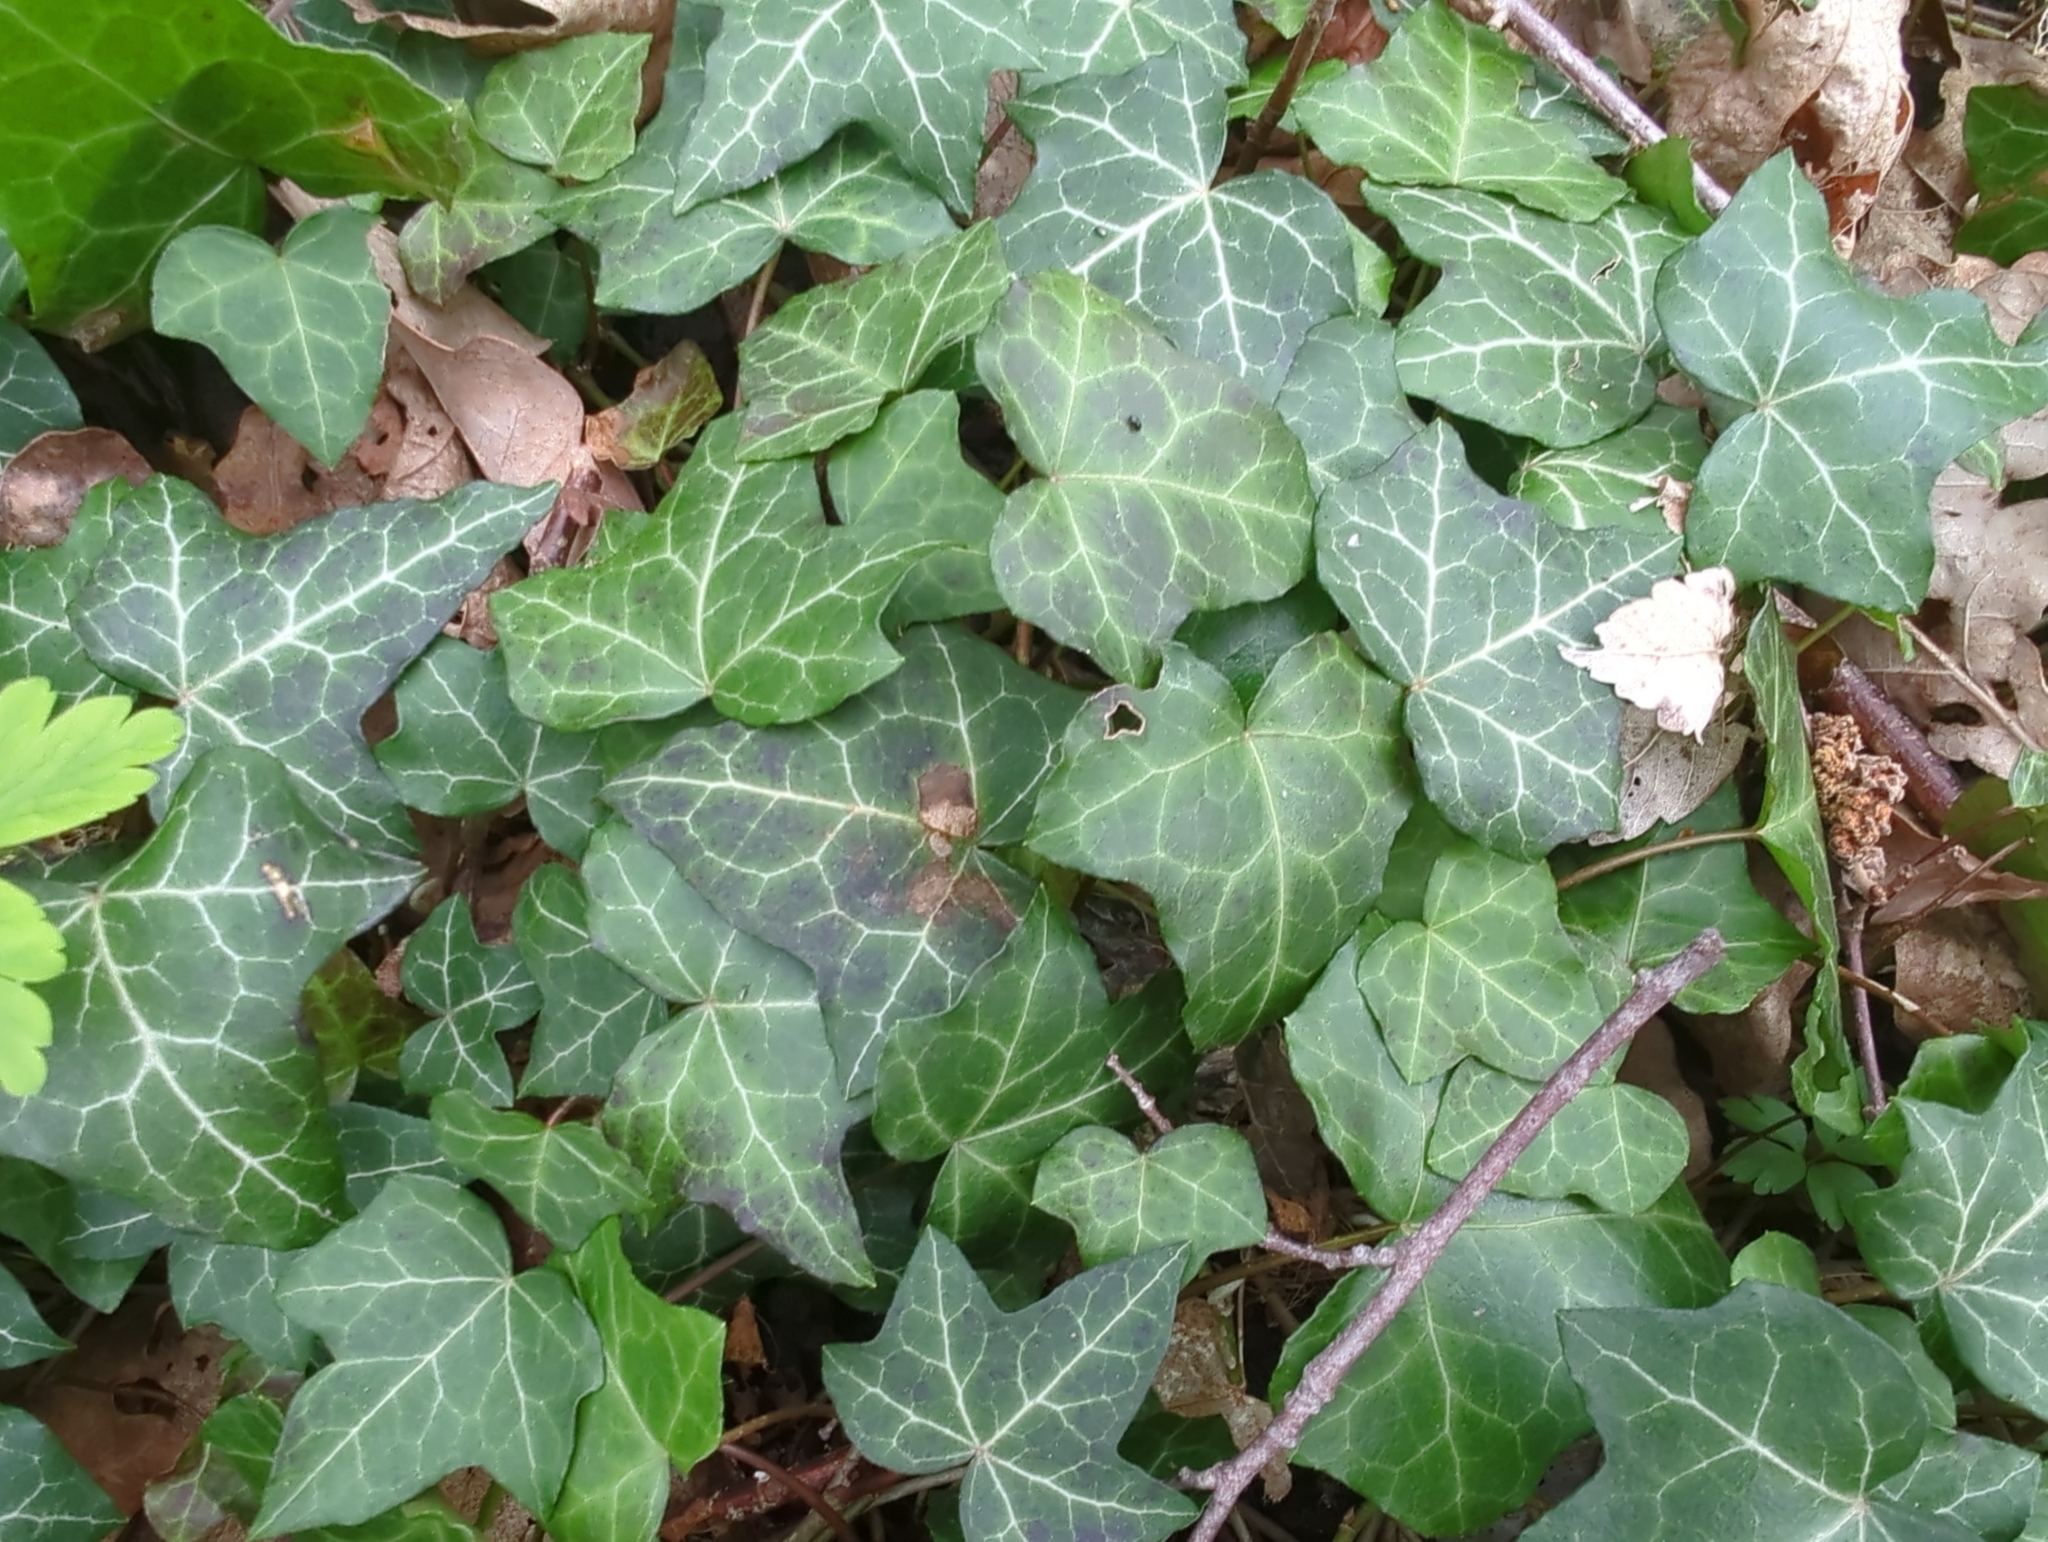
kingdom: Plantae
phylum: Tracheophyta
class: Magnoliopsida
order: Apiales
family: Araliaceae
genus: Hedera
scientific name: Hedera helix
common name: Ivy
